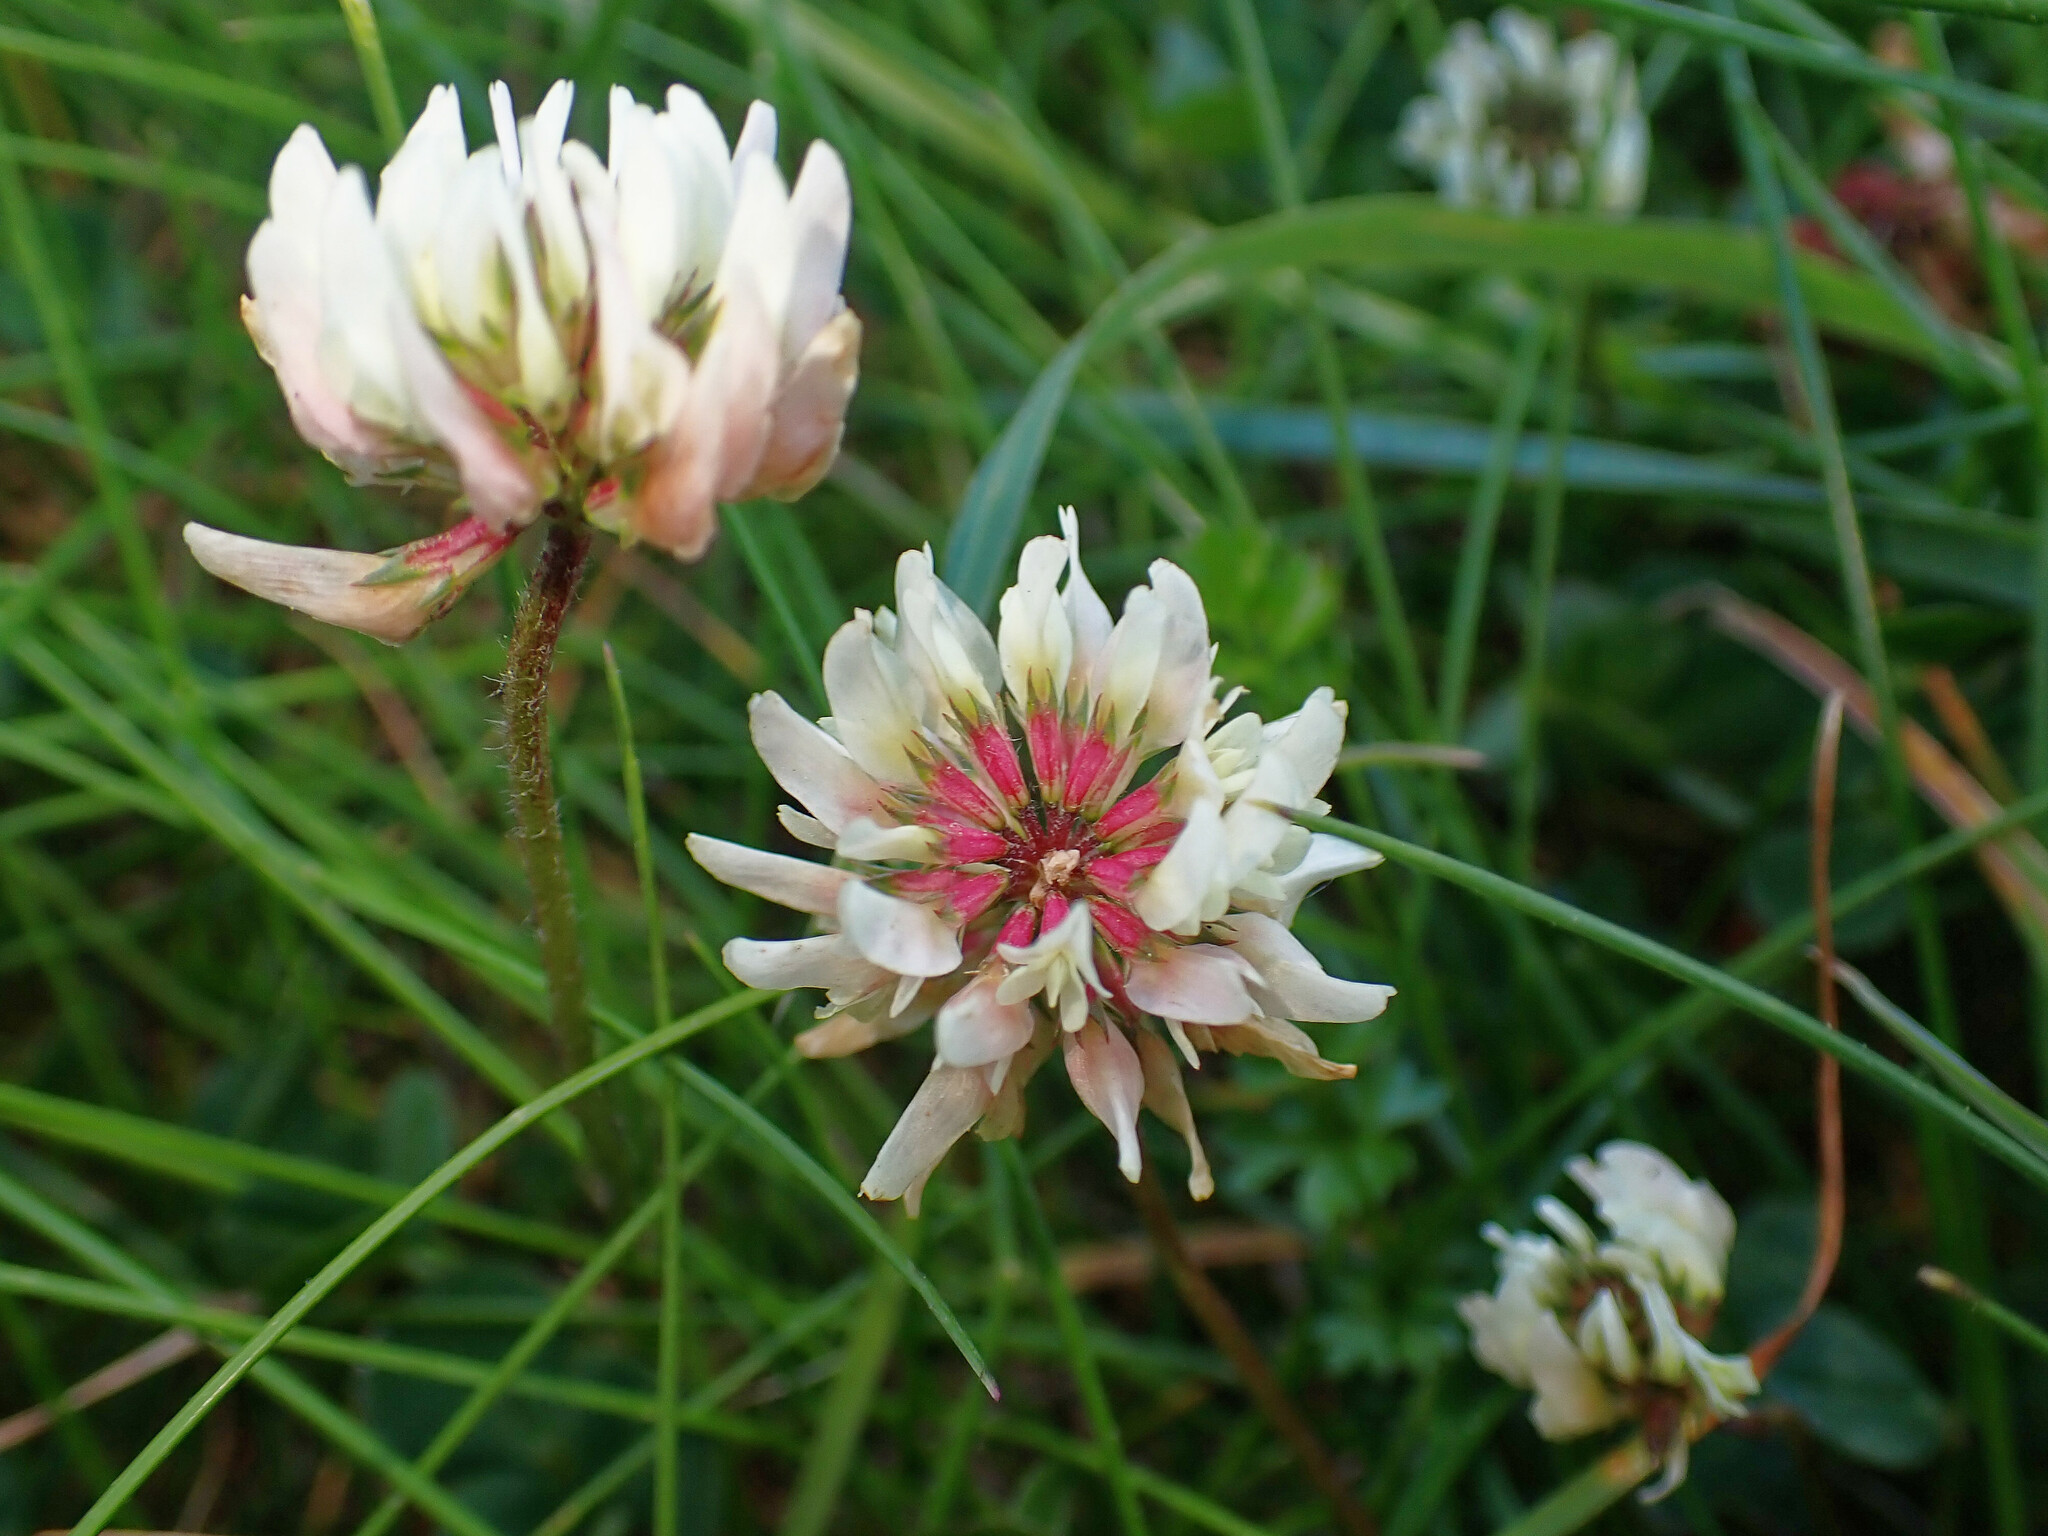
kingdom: Plantae
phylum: Tracheophyta
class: Magnoliopsida
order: Fabales
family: Fabaceae
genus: Trifolium
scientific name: Trifolium repens
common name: White clover
